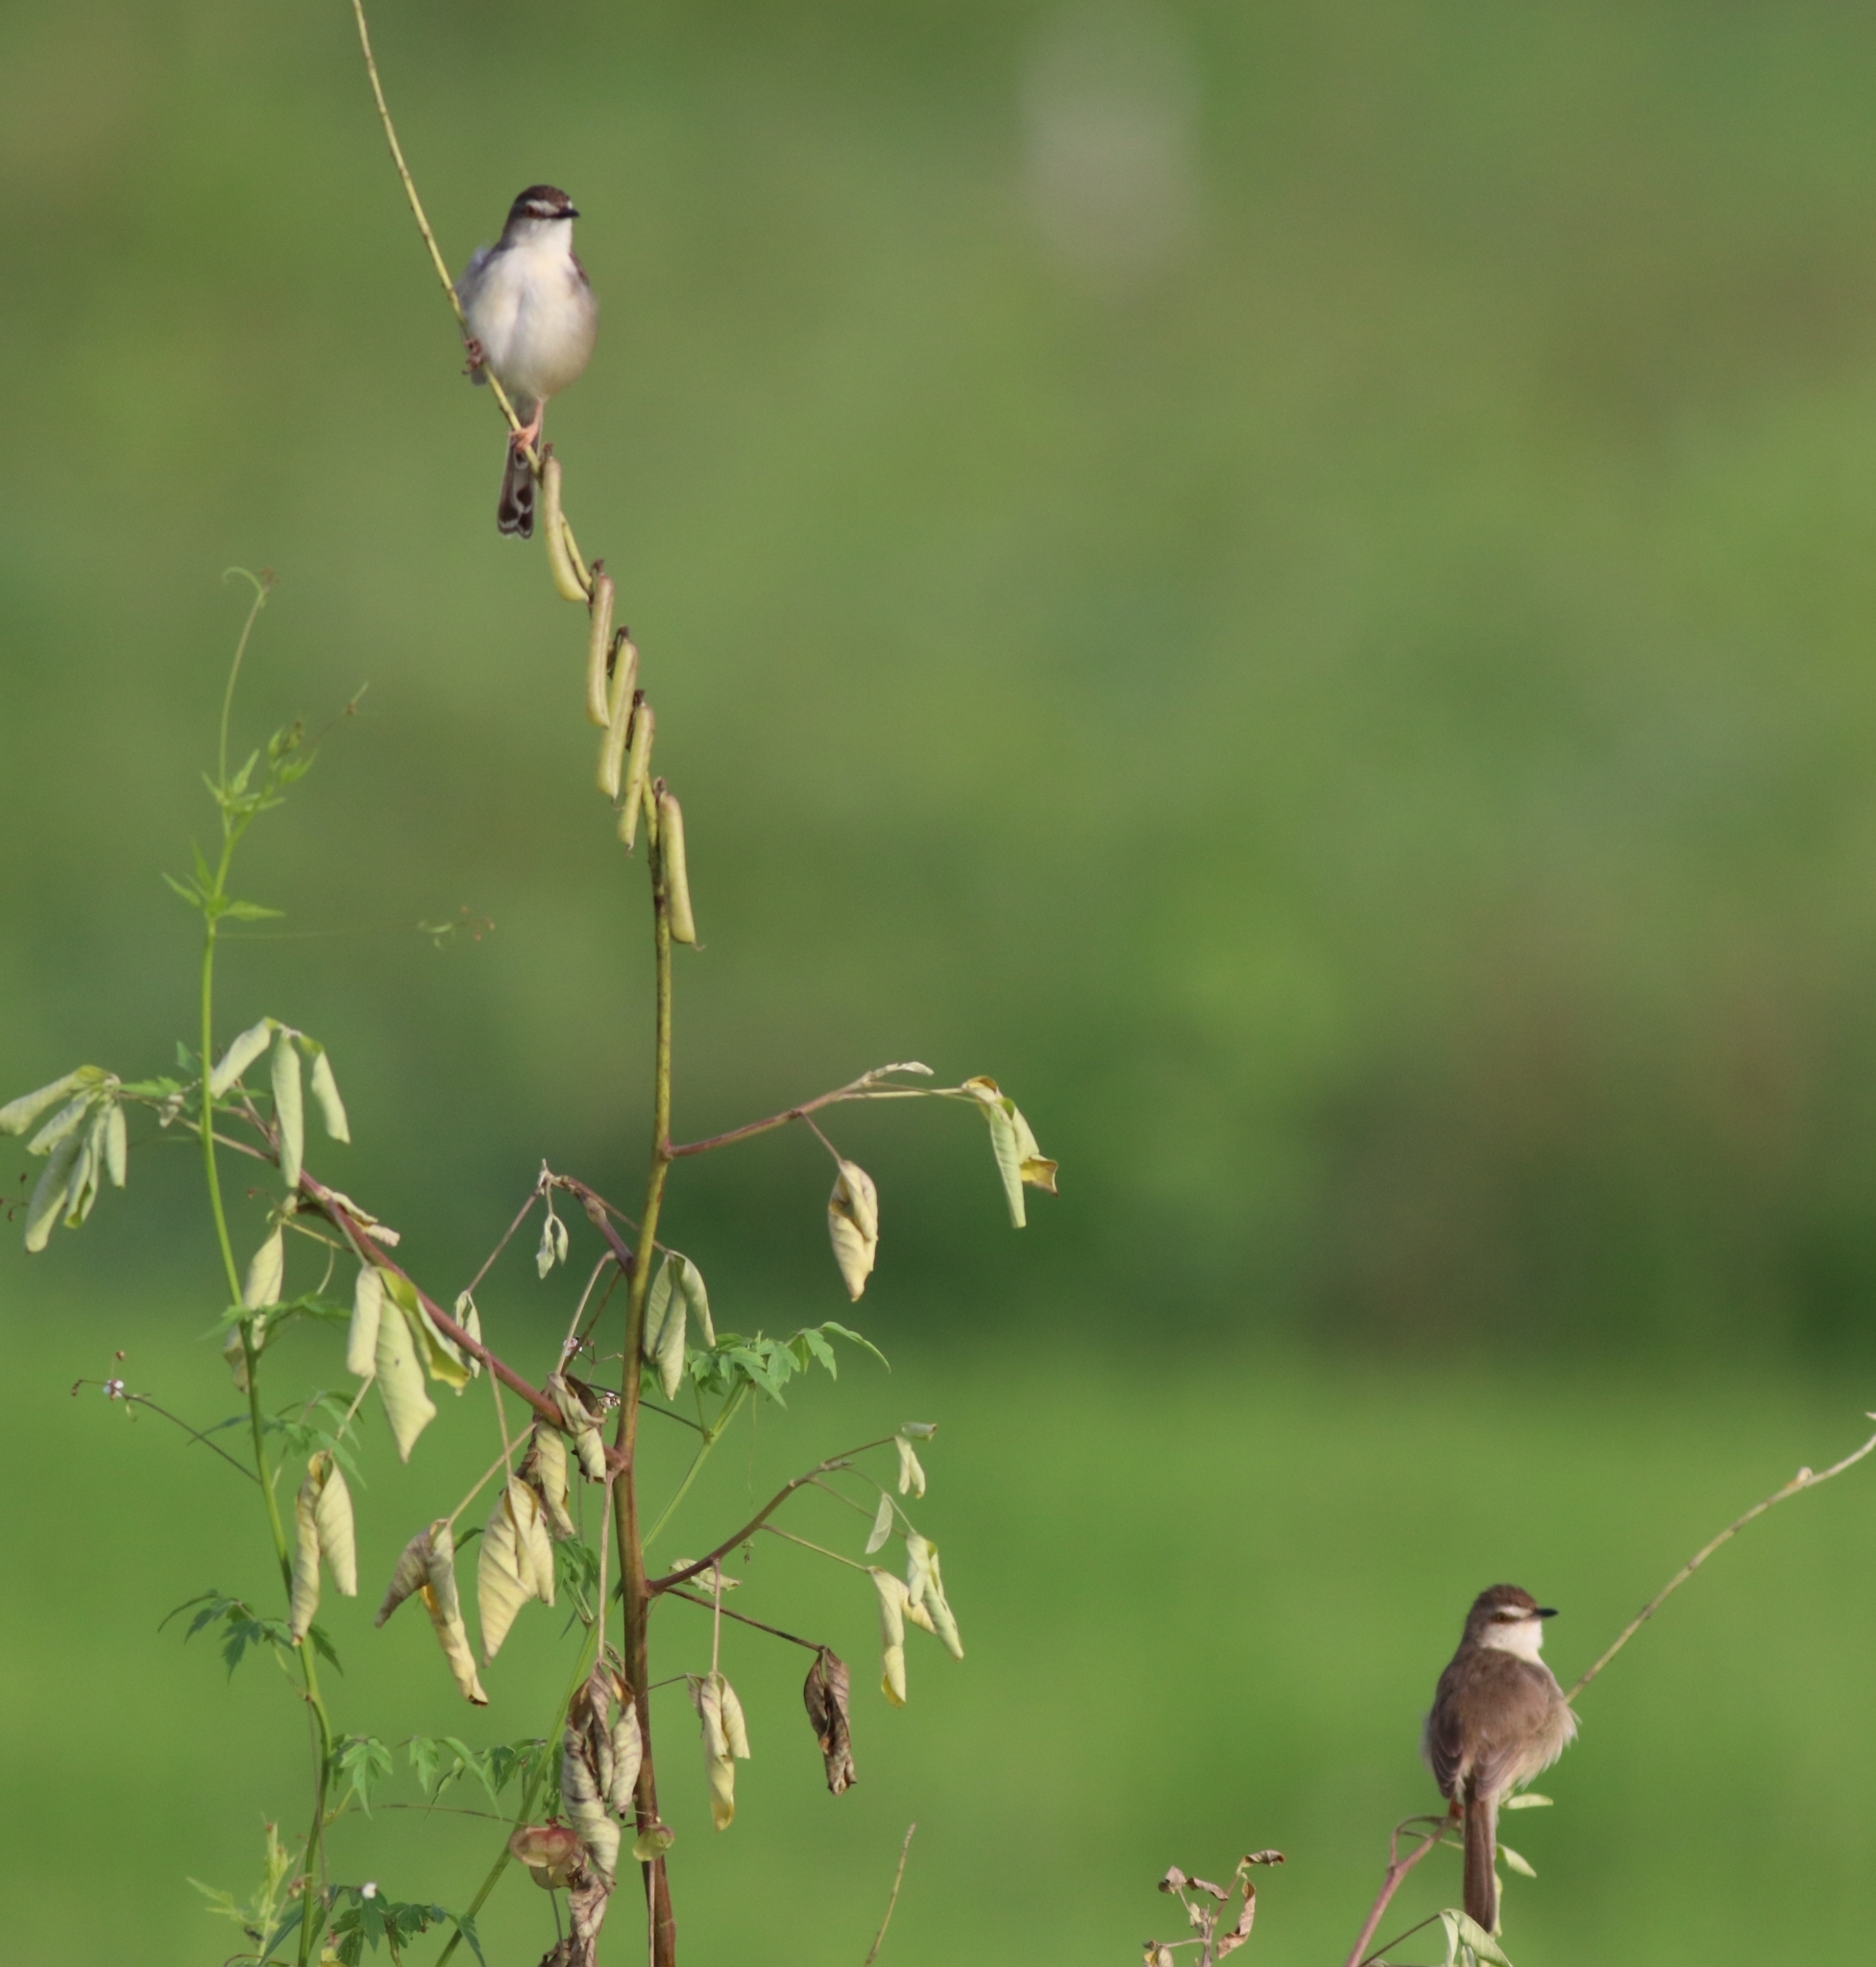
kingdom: Animalia
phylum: Chordata
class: Aves
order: Passeriformes
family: Cisticolidae
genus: Prinia
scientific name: Prinia inornata
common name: Plain prinia
